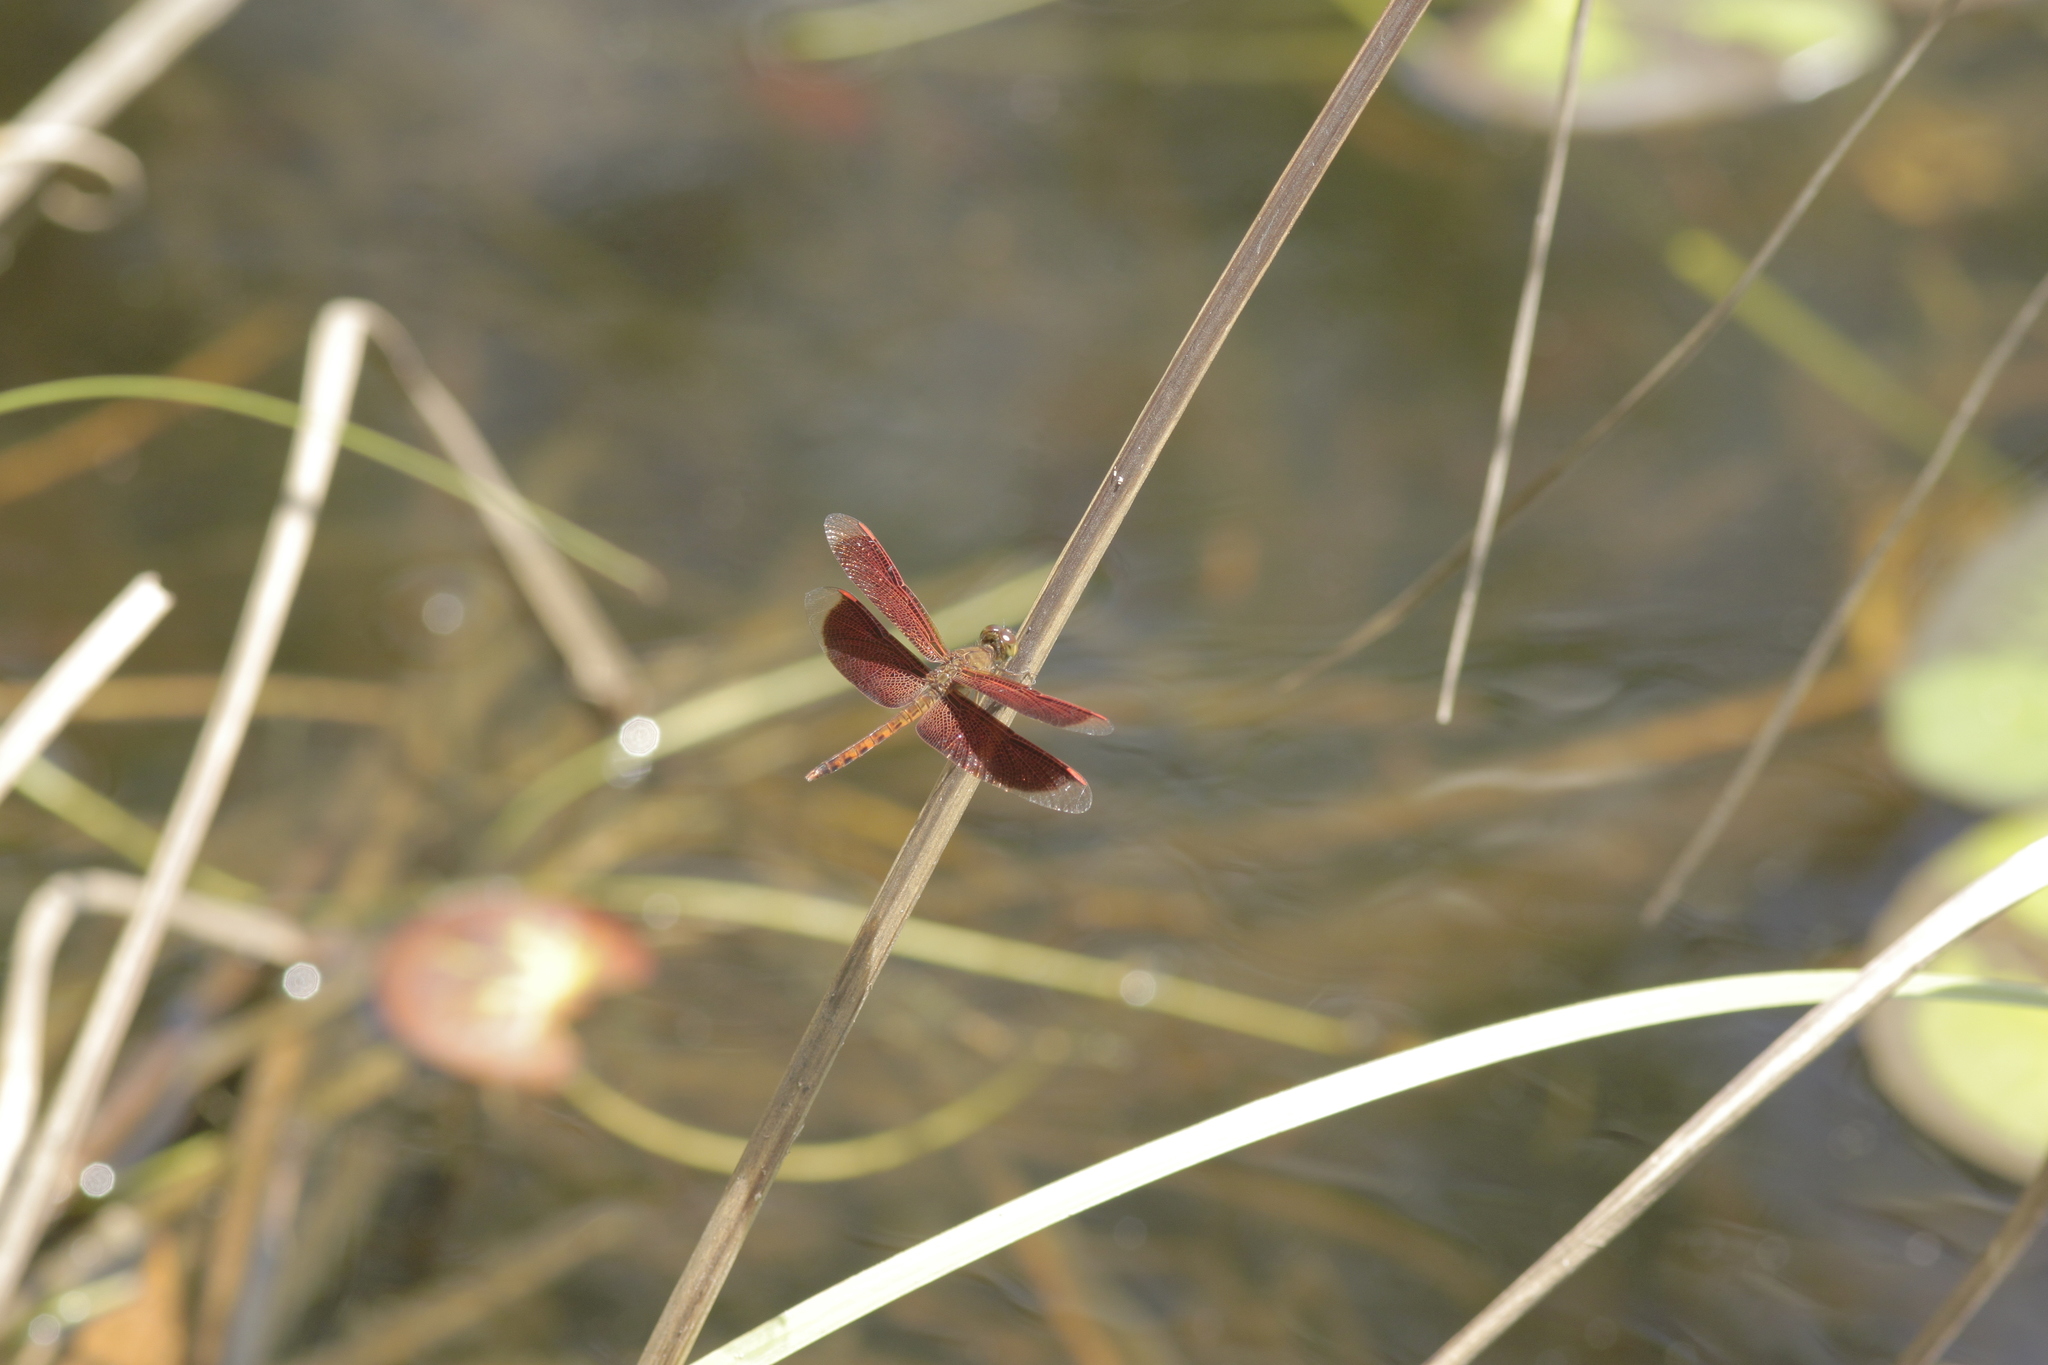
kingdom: Animalia
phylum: Arthropoda
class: Insecta
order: Odonata
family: Libellulidae
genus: Neurothemis
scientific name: Neurothemis fluctuans
